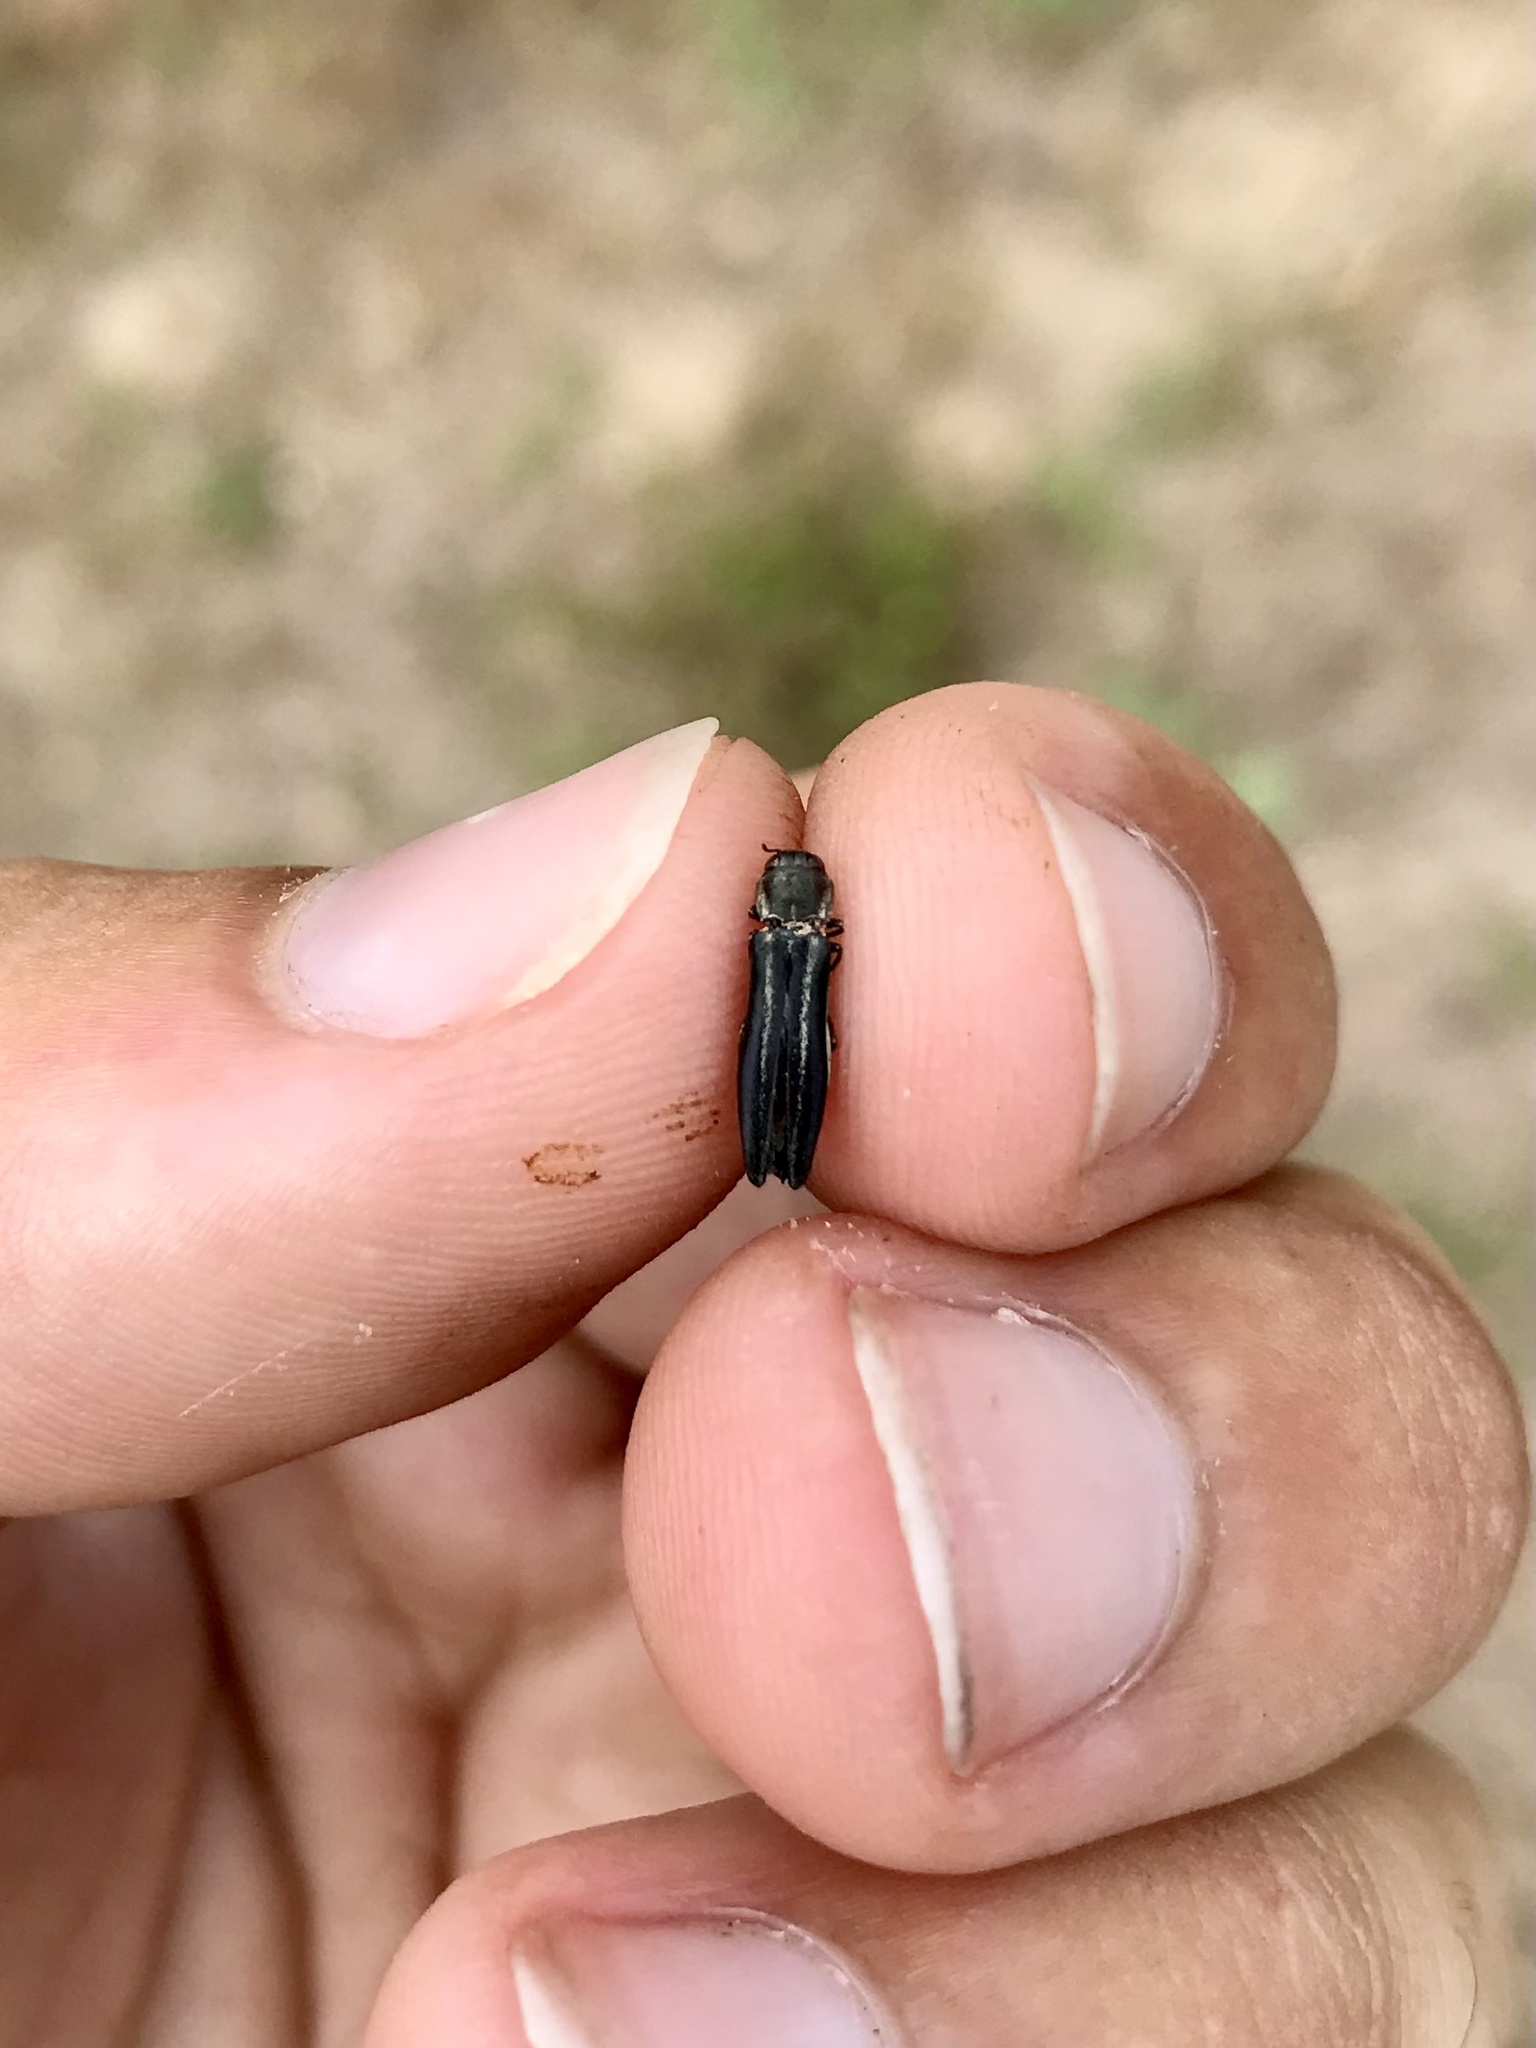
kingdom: Animalia
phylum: Arthropoda
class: Insecta
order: Coleoptera
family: Buprestidae
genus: Agrilus
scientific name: Agrilus bilineatus
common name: Two-lined chestnut borer
